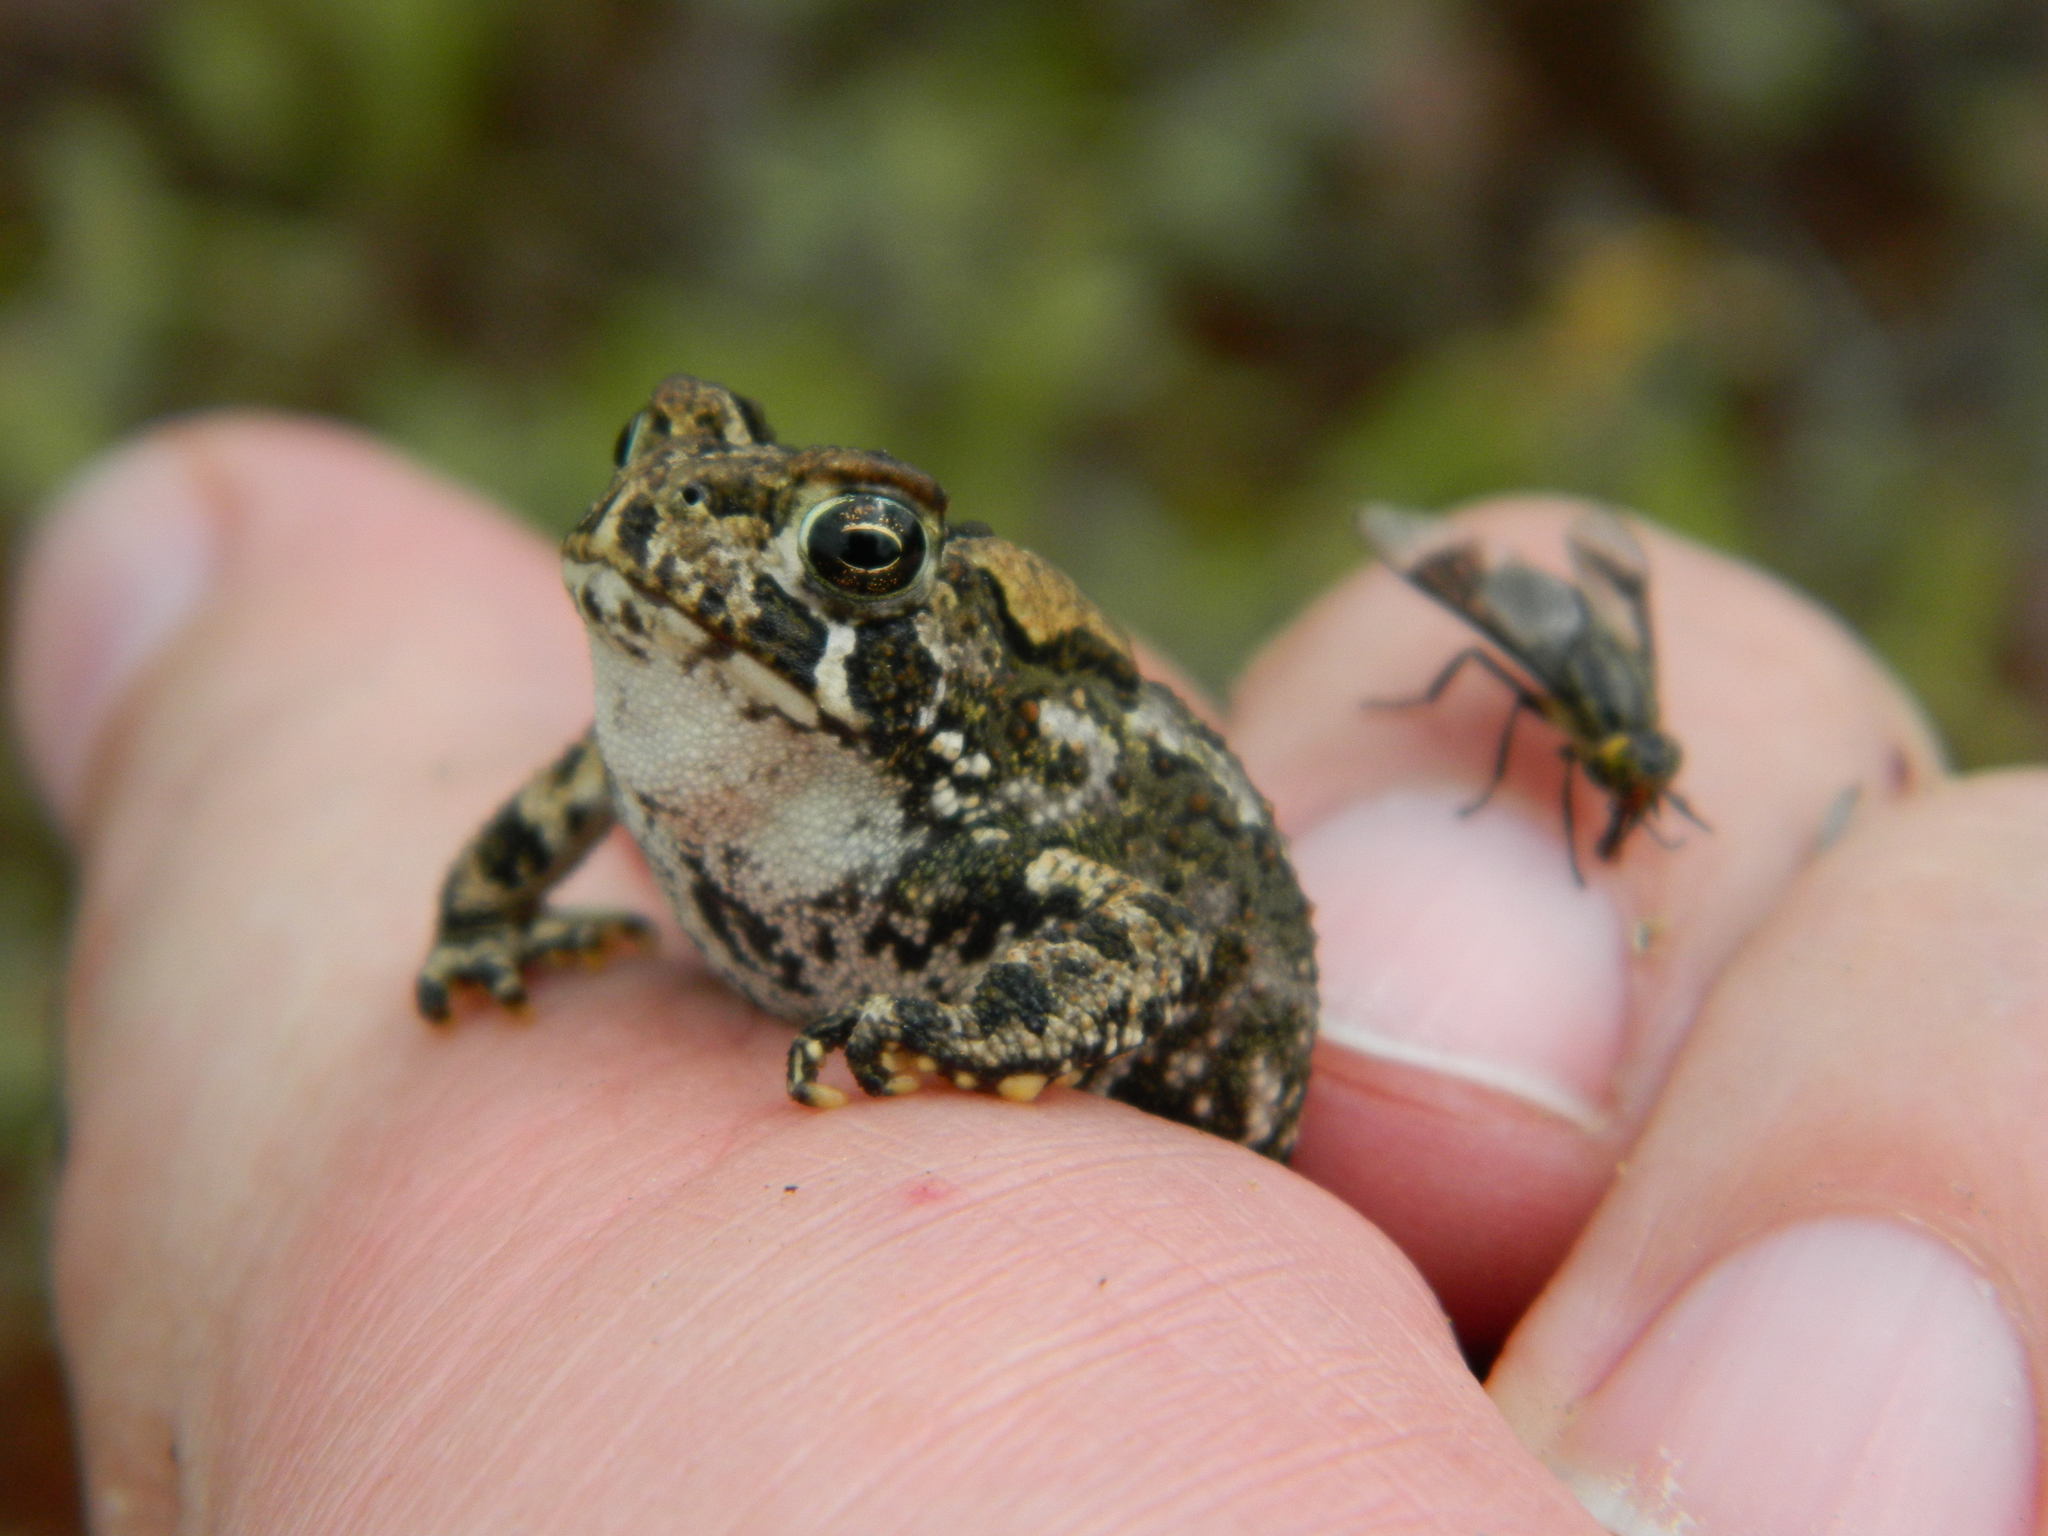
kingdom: Animalia
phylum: Chordata
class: Amphibia
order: Anura
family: Bufonidae
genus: Anaxyrus
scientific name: Anaxyrus americanus
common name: American toad
